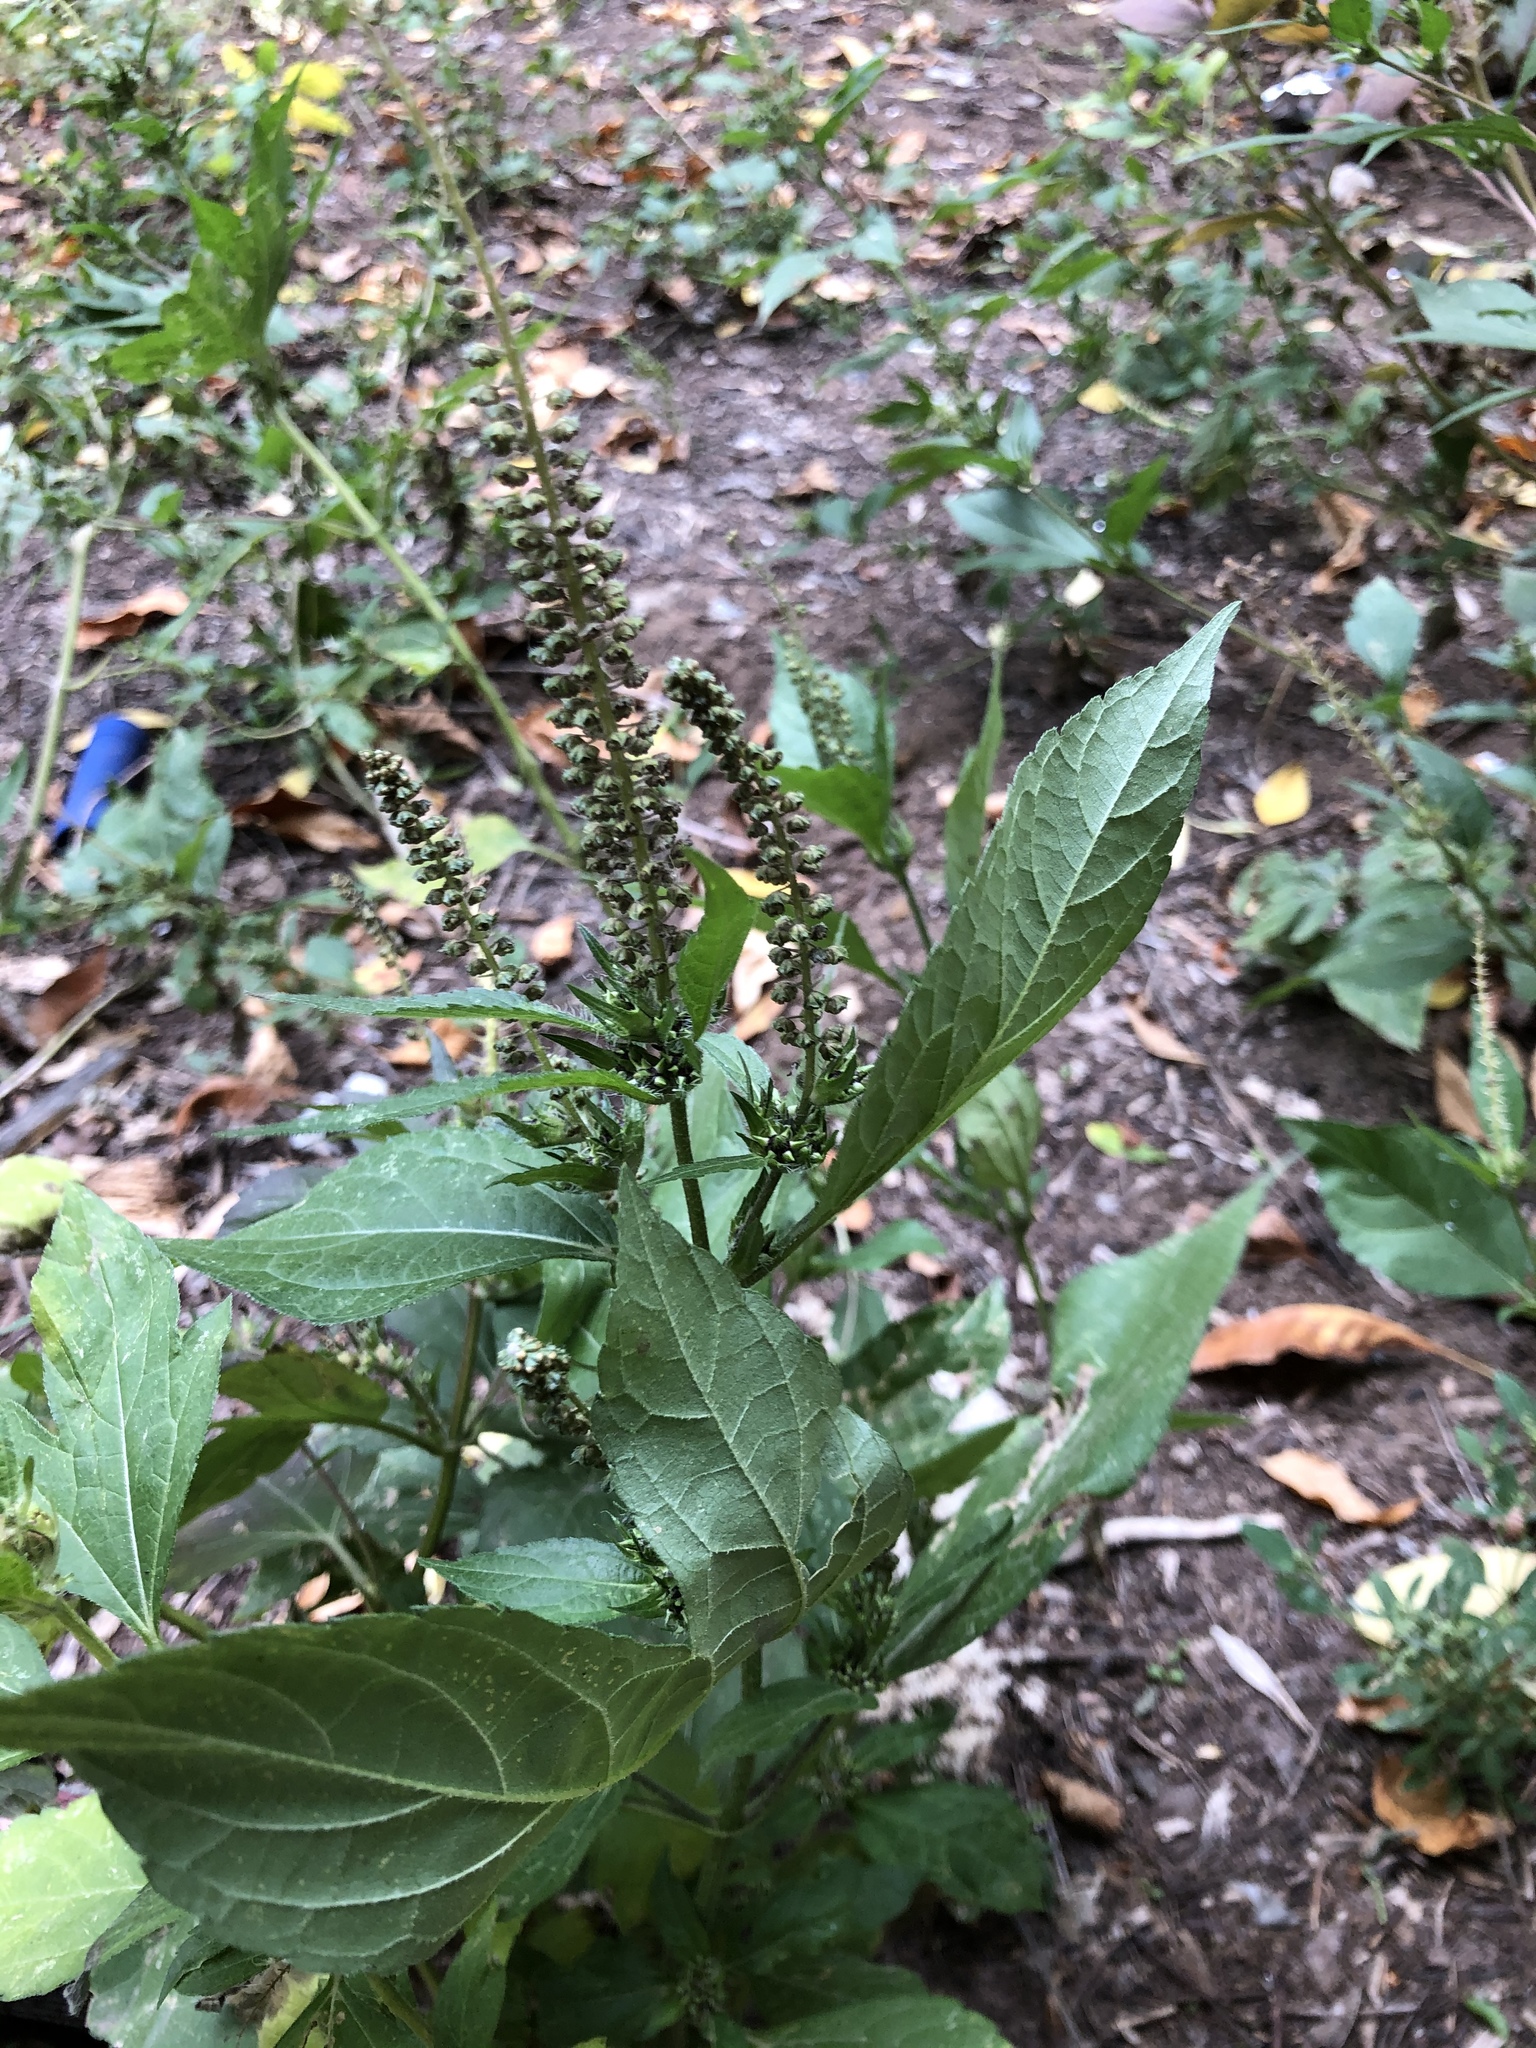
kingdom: Plantae
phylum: Tracheophyta
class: Magnoliopsida
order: Asterales
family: Asteraceae
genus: Ambrosia
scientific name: Ambrosia trifida
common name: Giant ragweed
